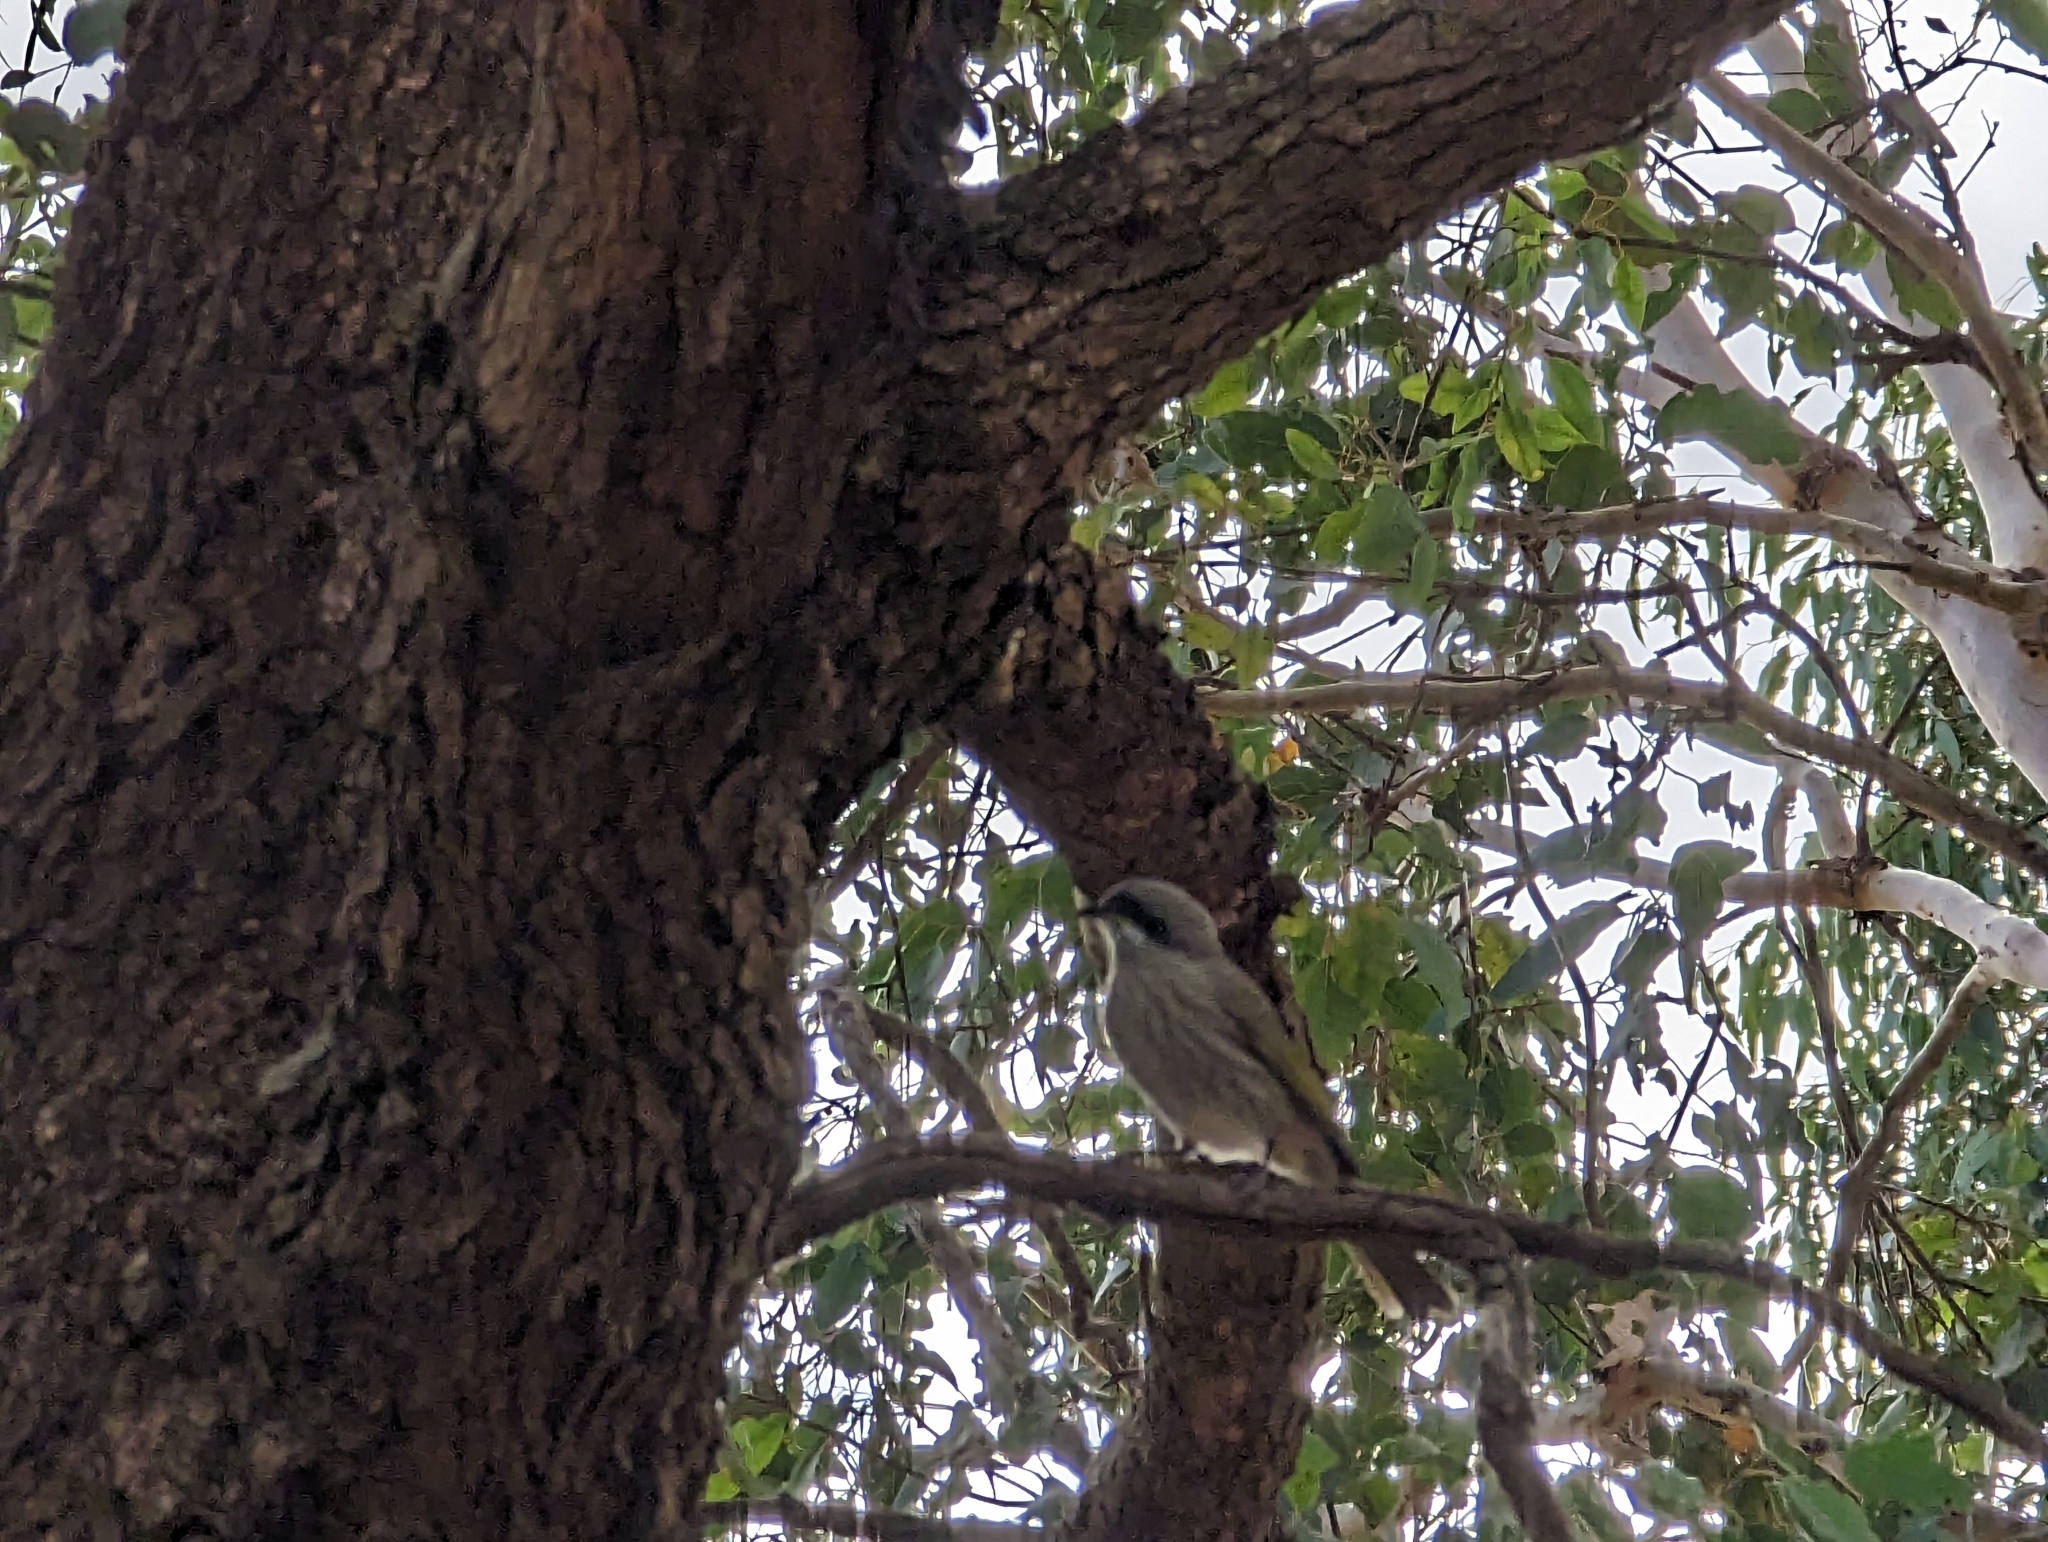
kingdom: Animalia
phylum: Chordata
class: Aves
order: Passeriformes
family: Meliphagidae
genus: Gavicalis
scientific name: Gavicalis virescens
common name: Singing honeyeater
